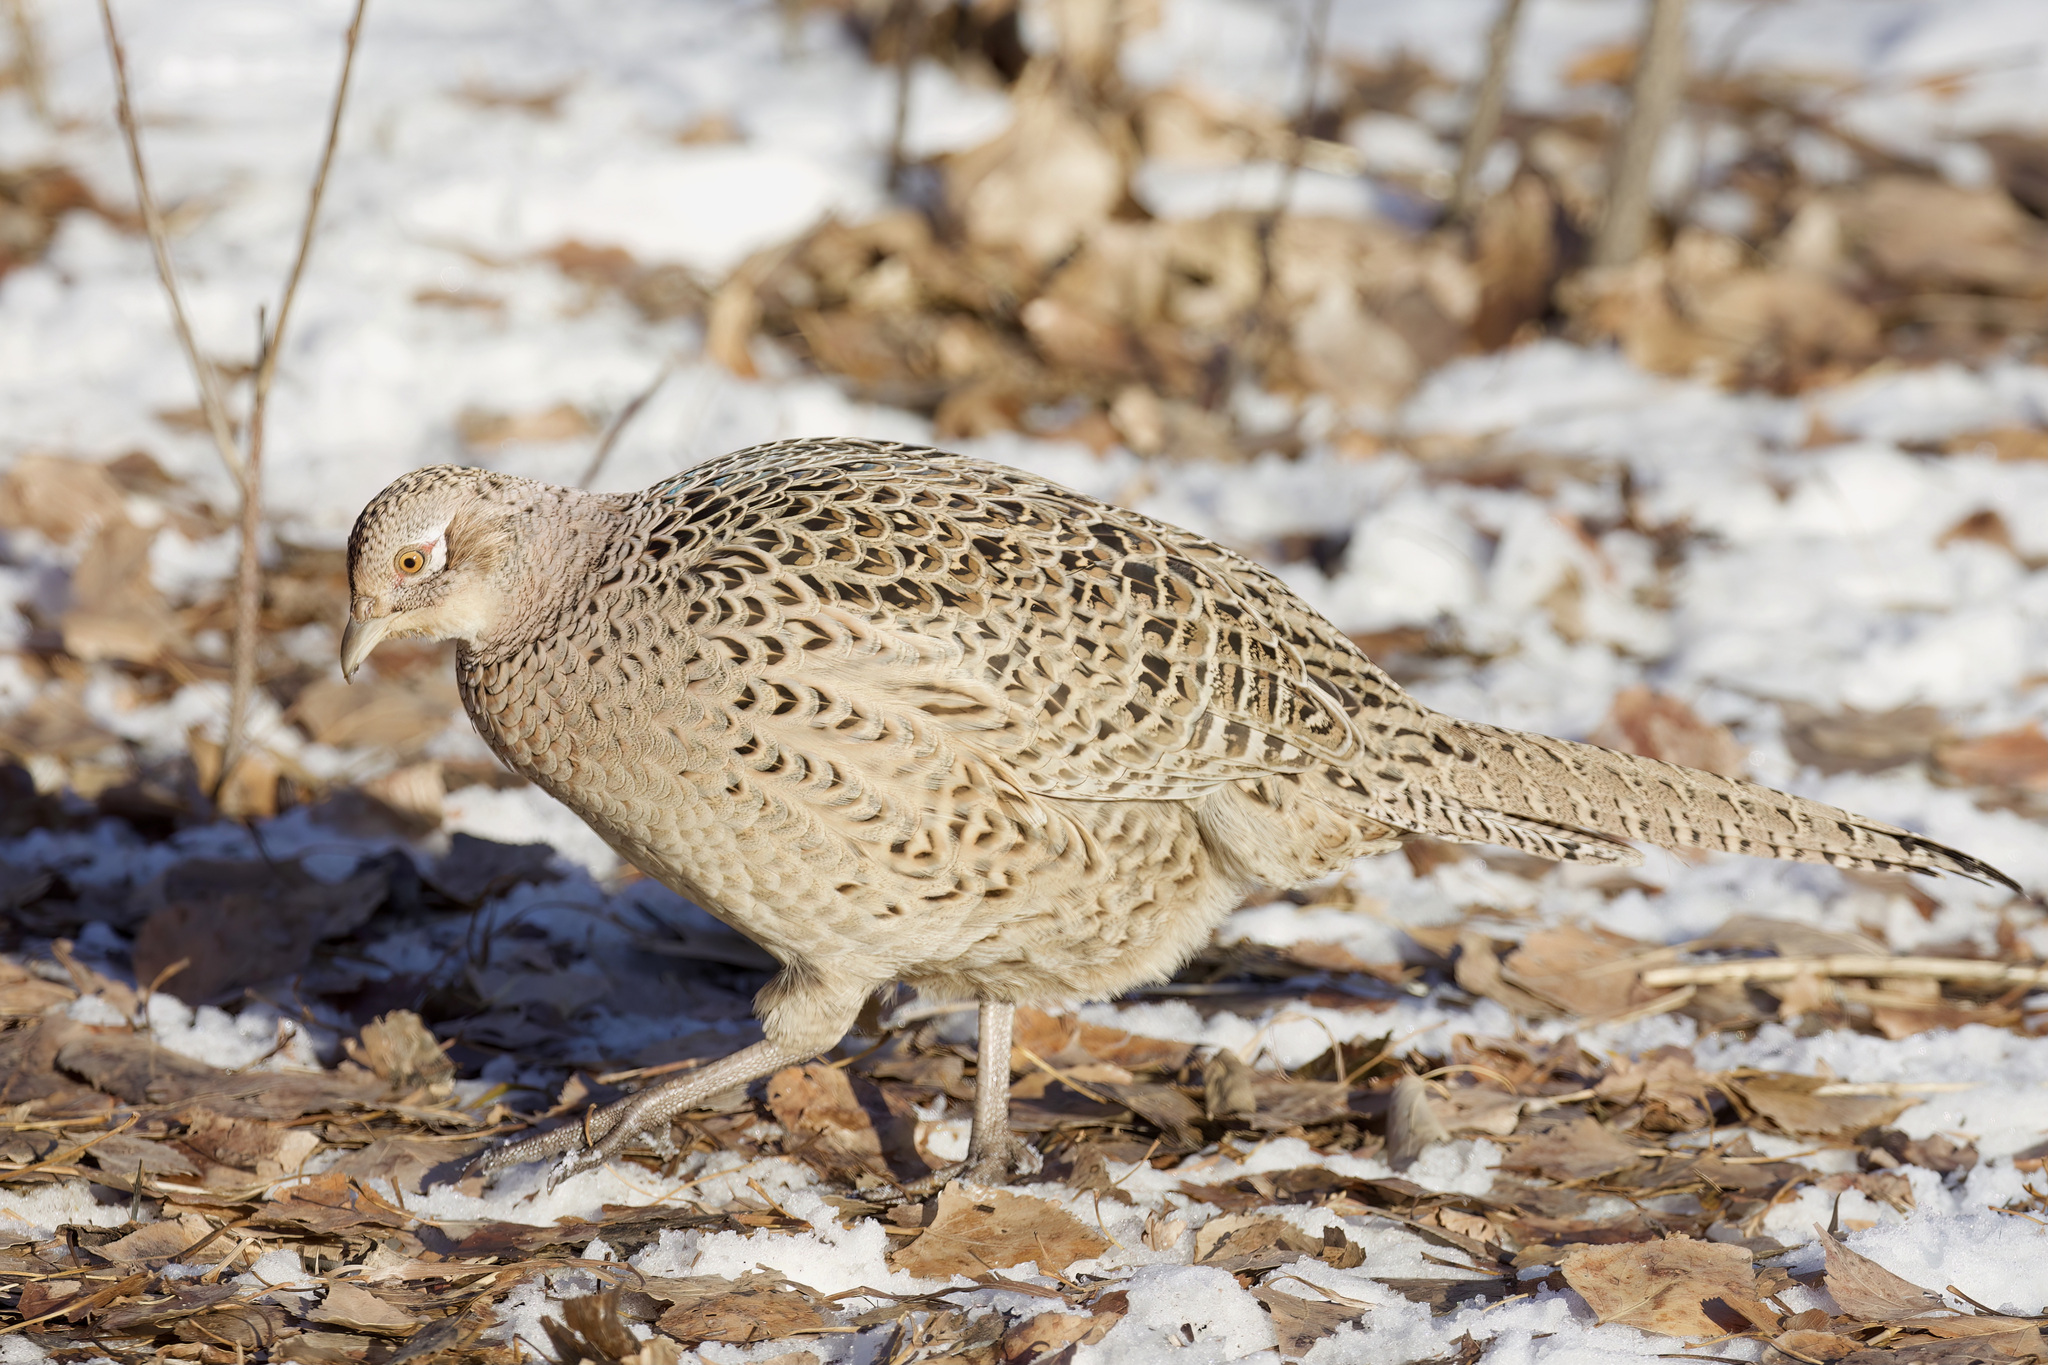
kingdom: Animalia
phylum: Chordata
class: Aves
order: Galliformes
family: Phasianidae
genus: Phasianus
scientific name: Phasianus colchicus
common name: Common pheasant
